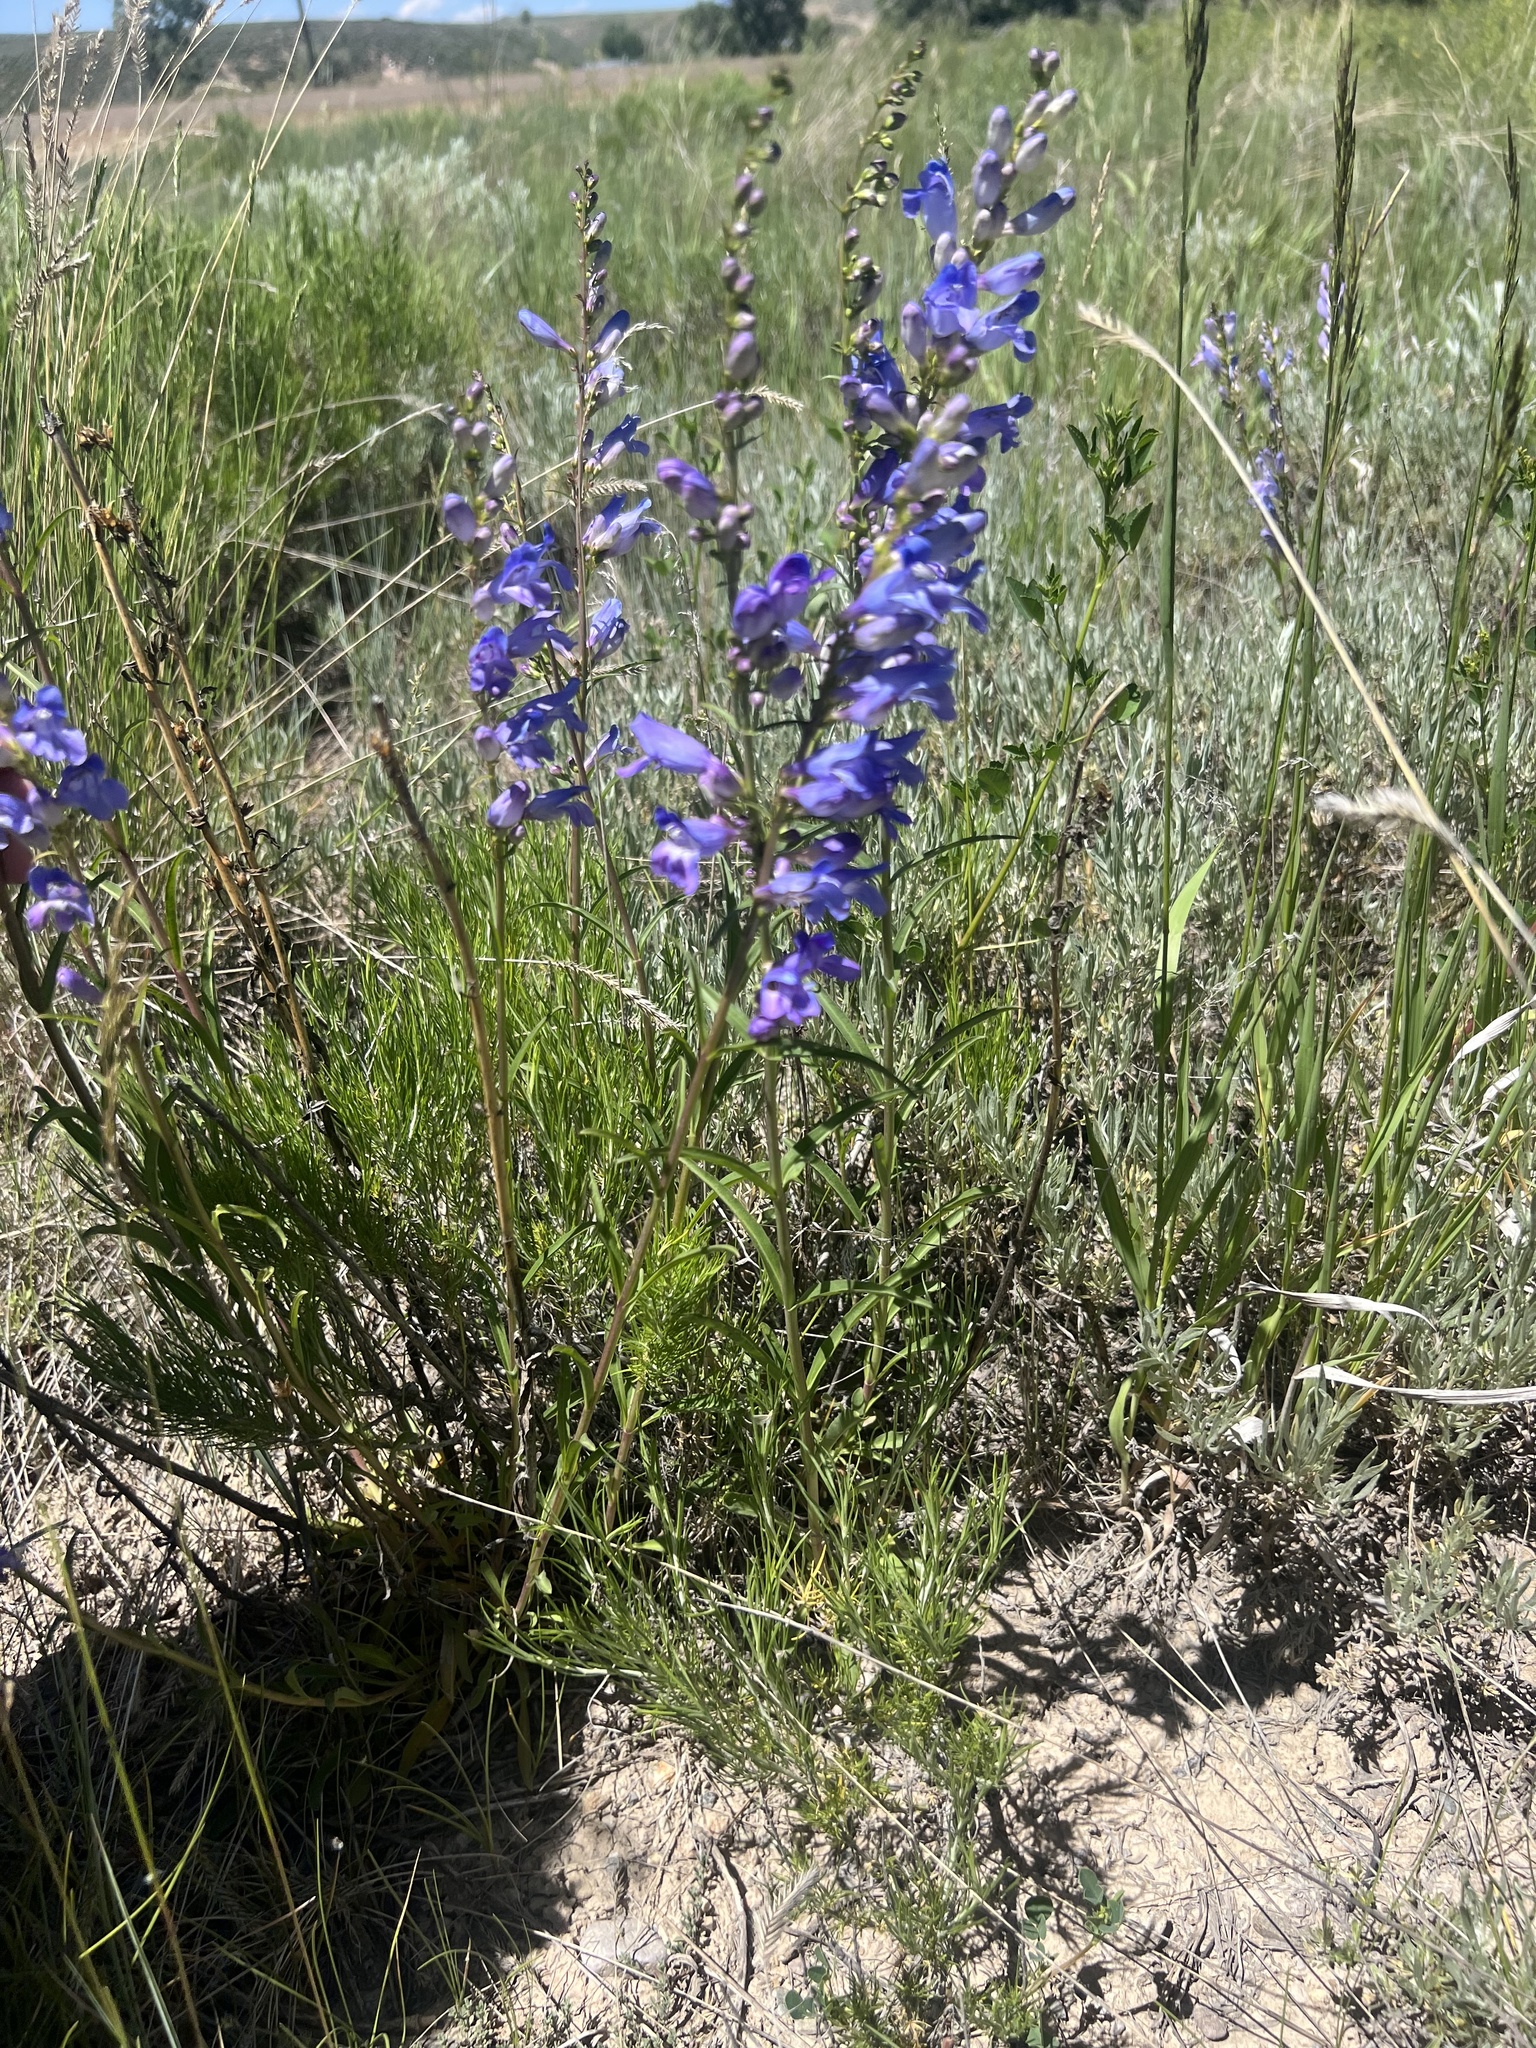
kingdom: Plantae
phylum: Tracheophyta
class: Magnoliopsida
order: Lamiales
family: Plantaginaceae
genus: Penstemon
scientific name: Penstemon strictus
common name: Rocky mountain penstemon
